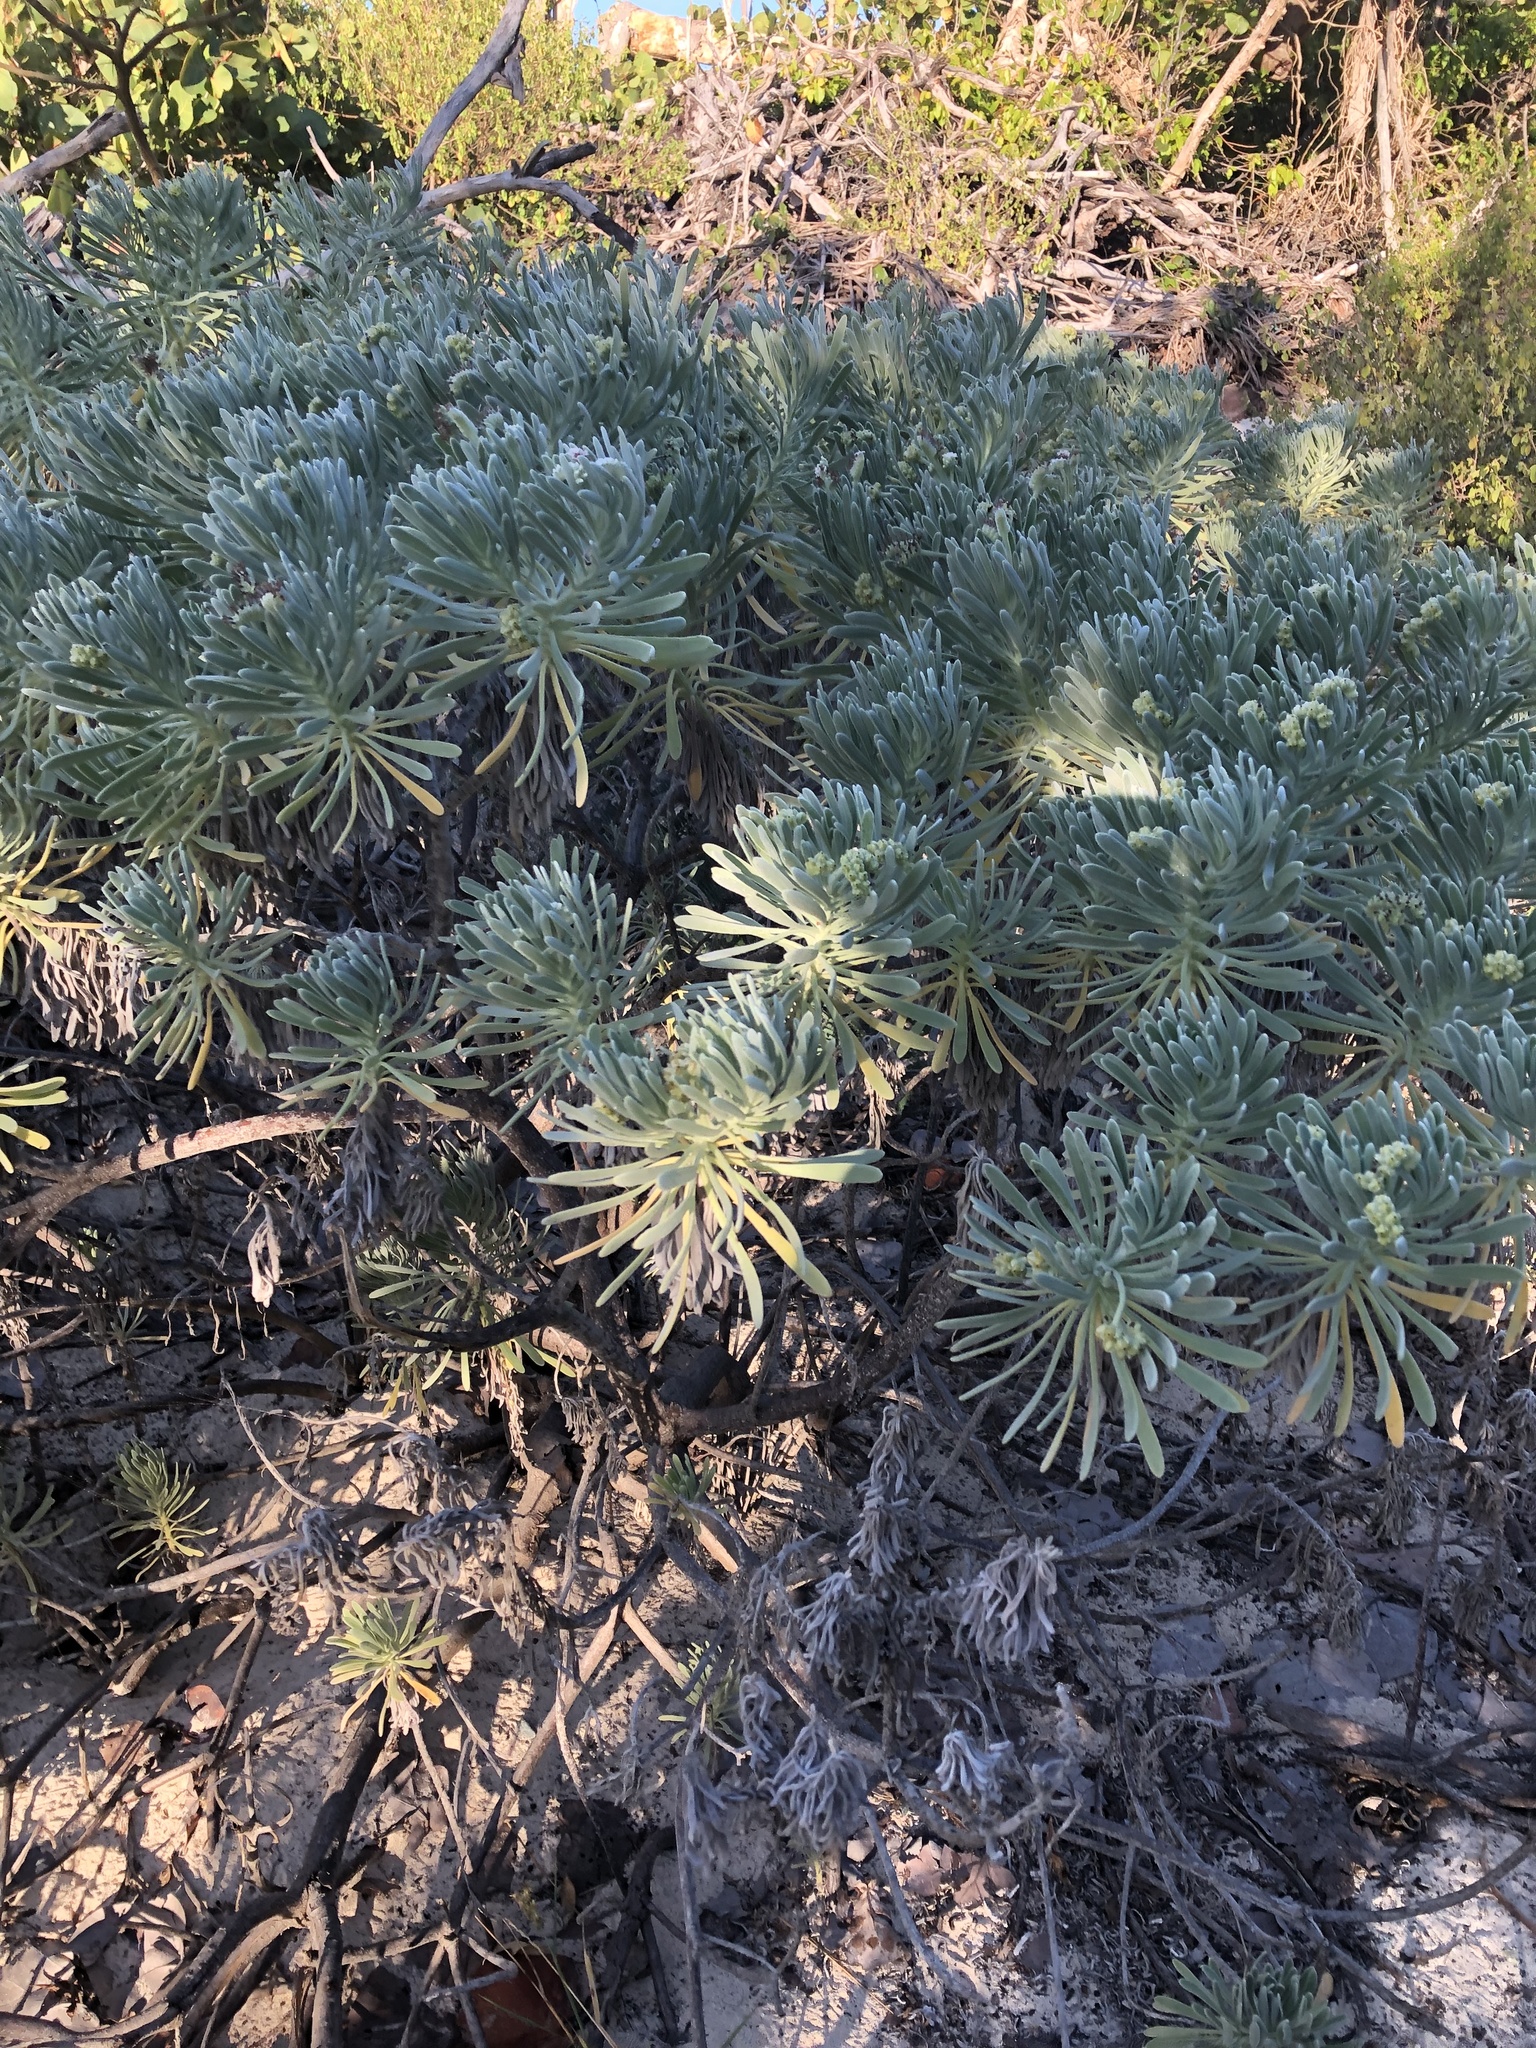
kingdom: Plantae
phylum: Tracheophyta
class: Magnoliopsida
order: Boraginales
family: Heliotropiaceae
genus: Tournefortia
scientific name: Tournefortia gnaphalodes
